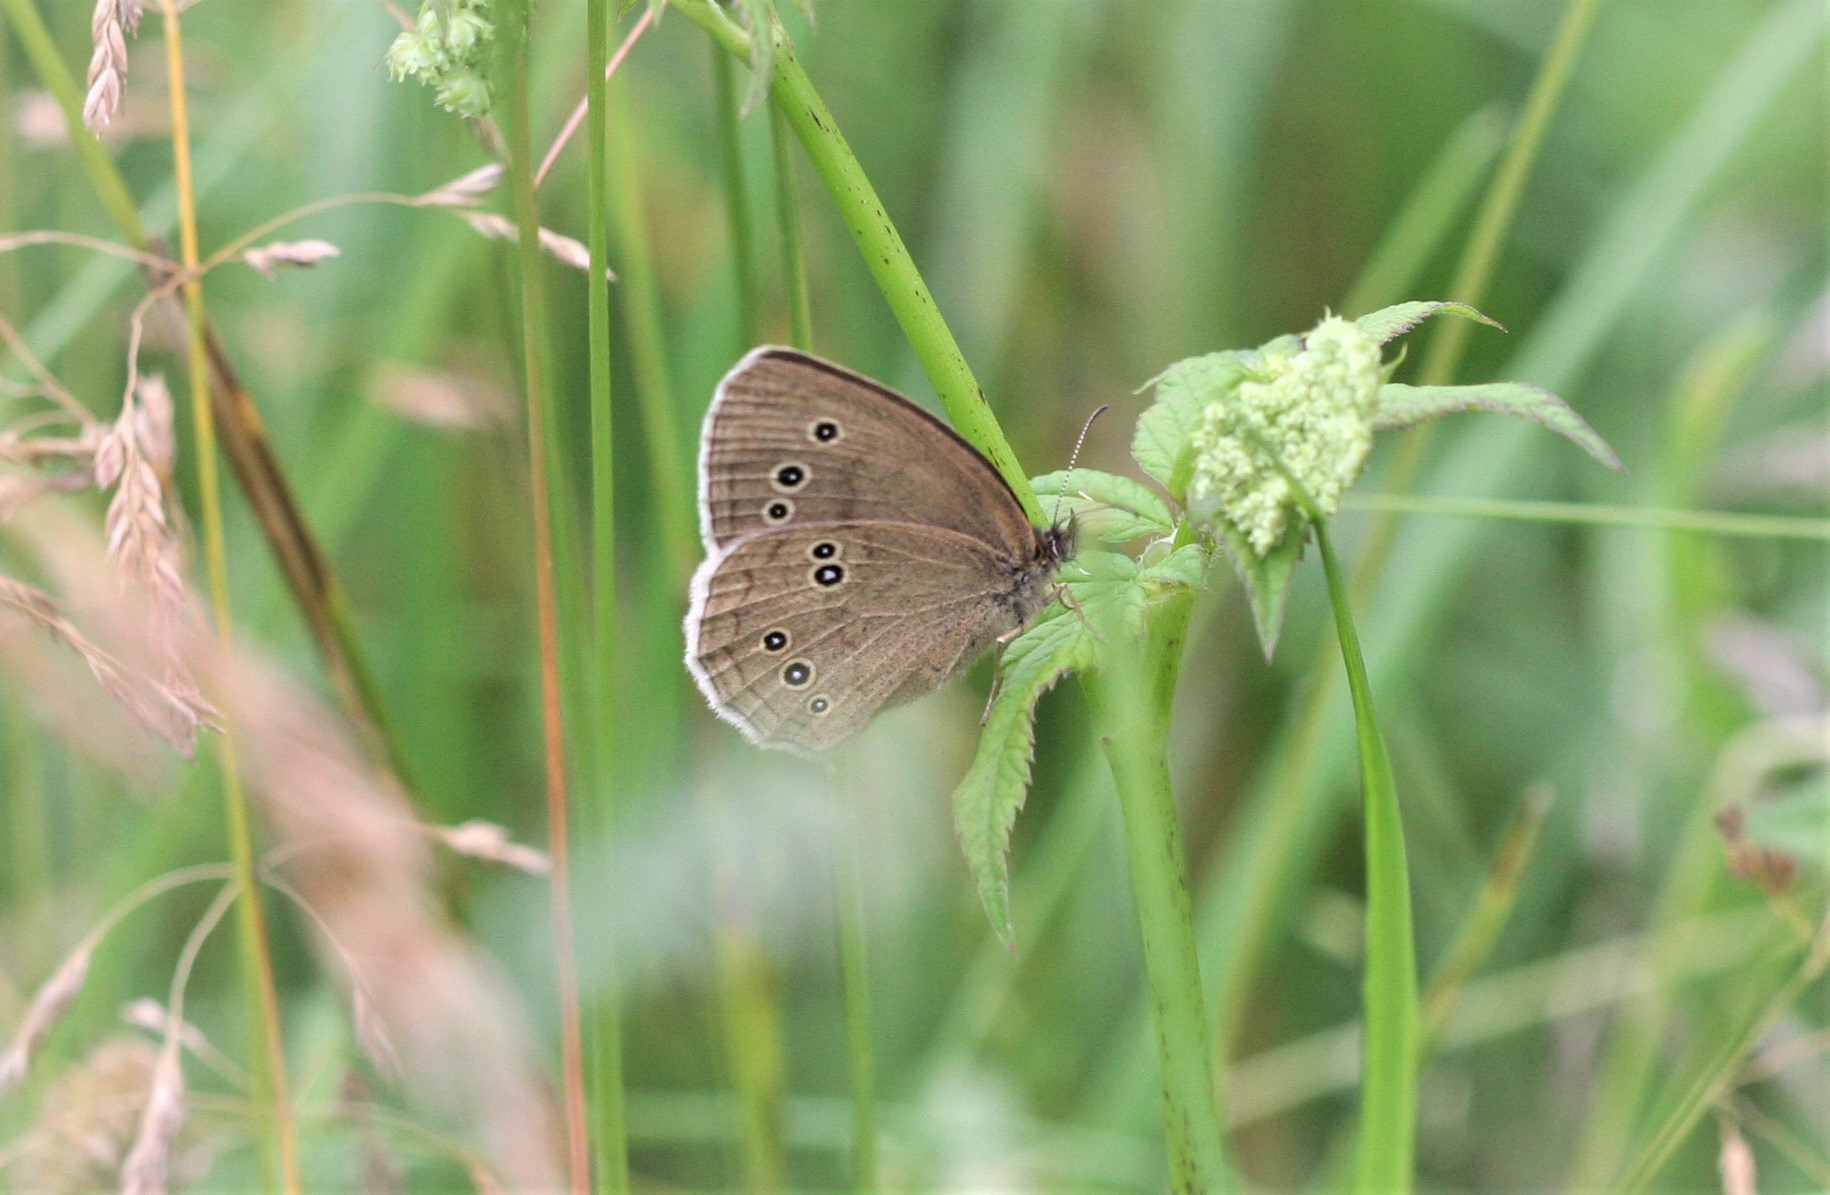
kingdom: Animalia
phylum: Arthropoda
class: Insecta
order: Lepidoptera
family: Nymphalidae
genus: Aphantopus
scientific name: Aphantopus hyperantus
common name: Ringlet
